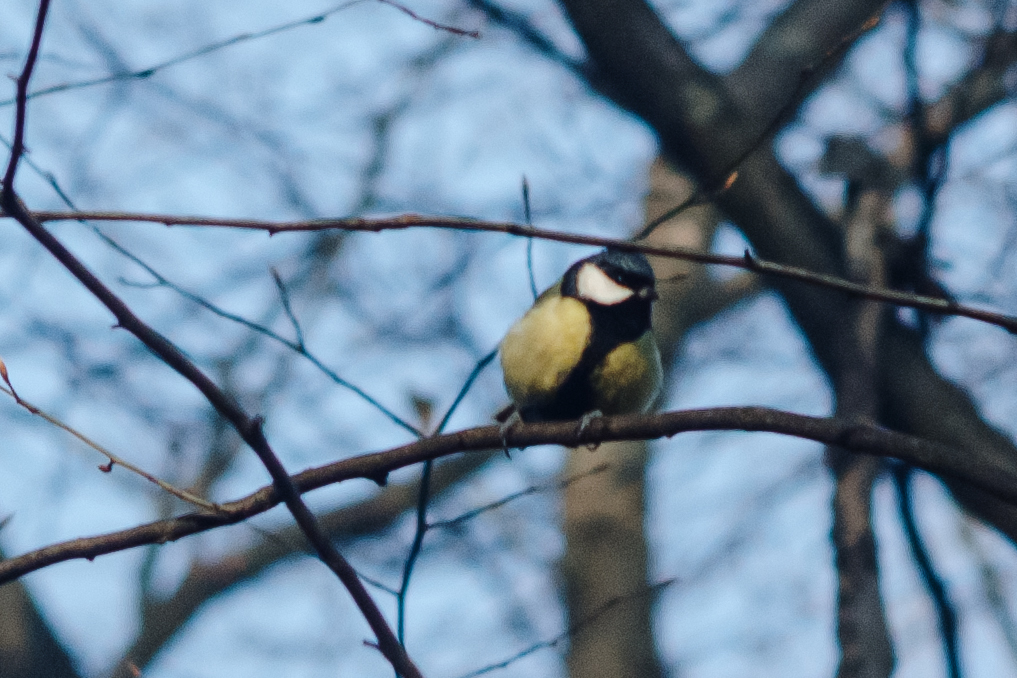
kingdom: Animalia
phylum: Chordata
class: Aves
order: Passeriformes
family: Paridae
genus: Parus
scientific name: Parus major
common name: Great tit
